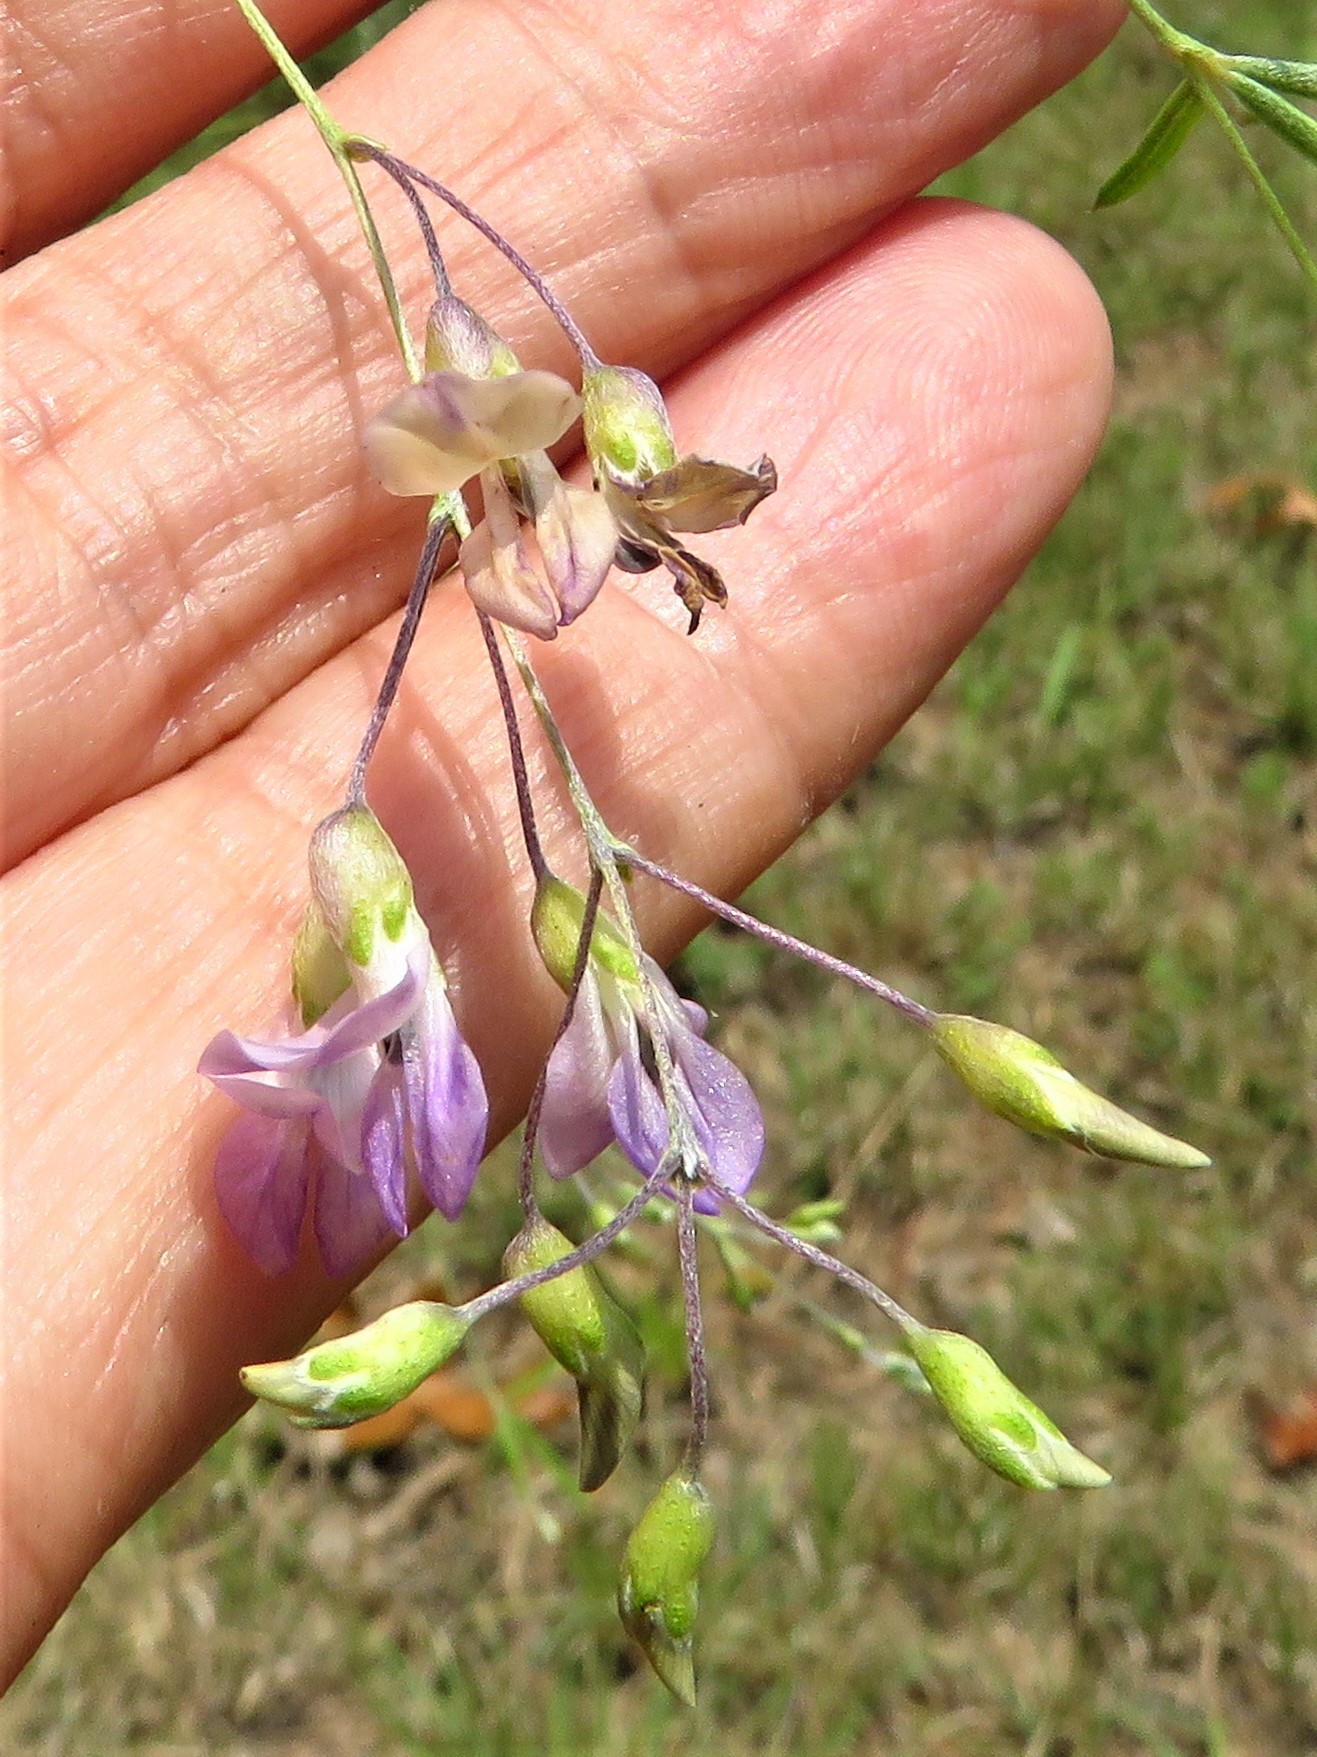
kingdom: Plantae
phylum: Tracheophyta
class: Magnoliopsida
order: Fabales
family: Fabaceae
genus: Pediomelum
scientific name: Pediomelum linearifolium
